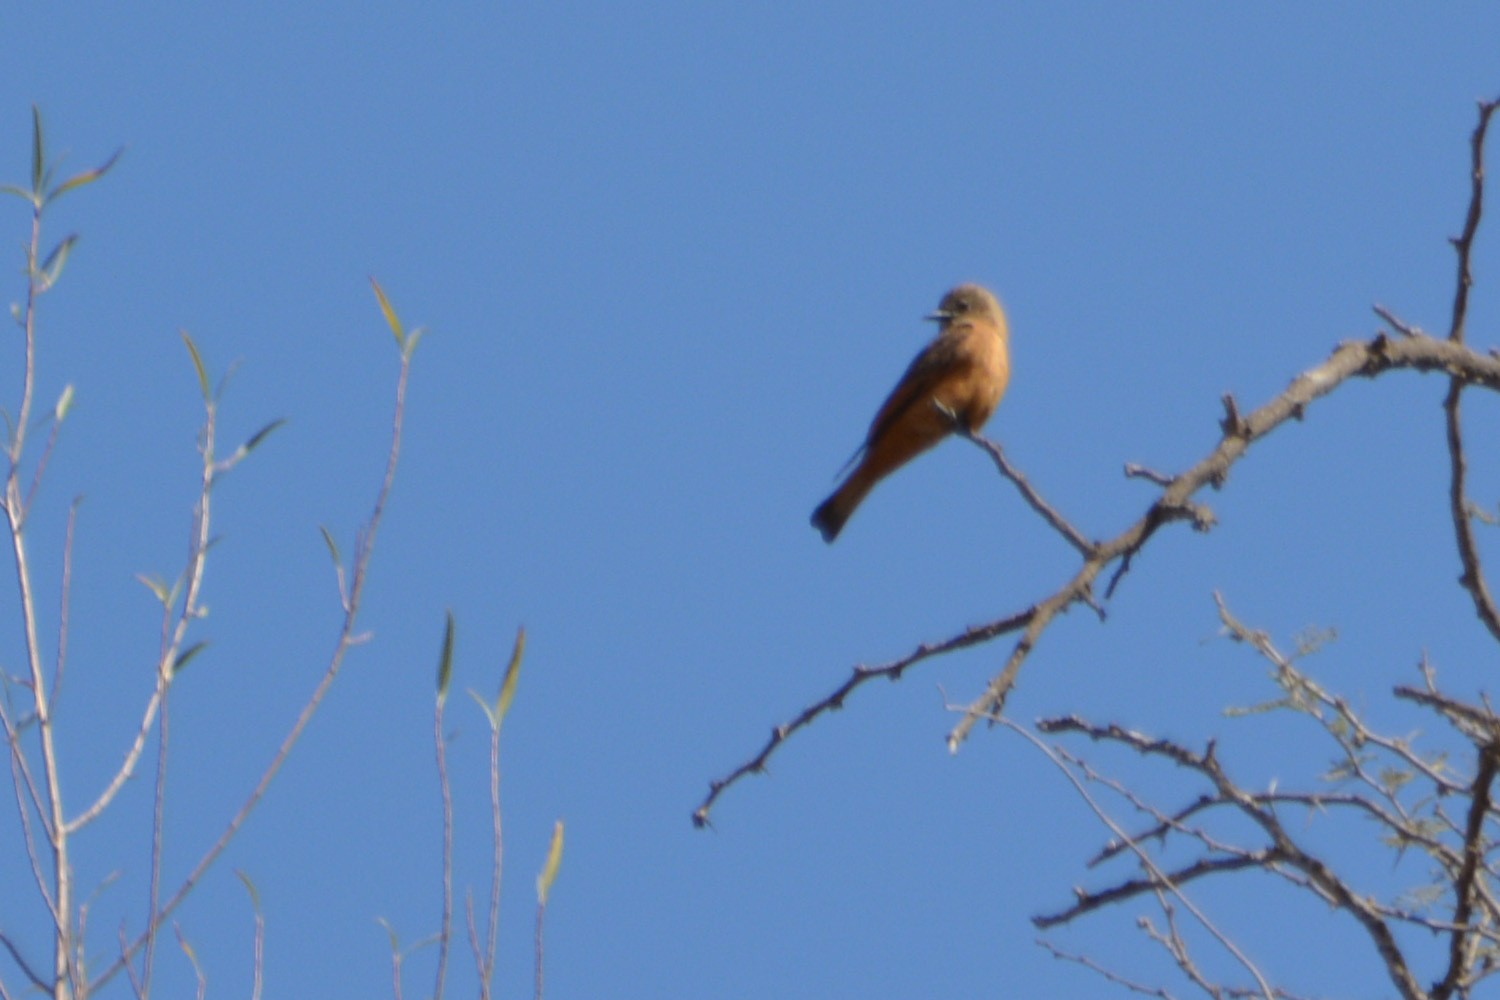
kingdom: Animalia
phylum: Chordata
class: Aves
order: Passeriformes
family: Tyrannidae
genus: Hirundinea
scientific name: Hirundinea ferruginea
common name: Cliff flycatcher
